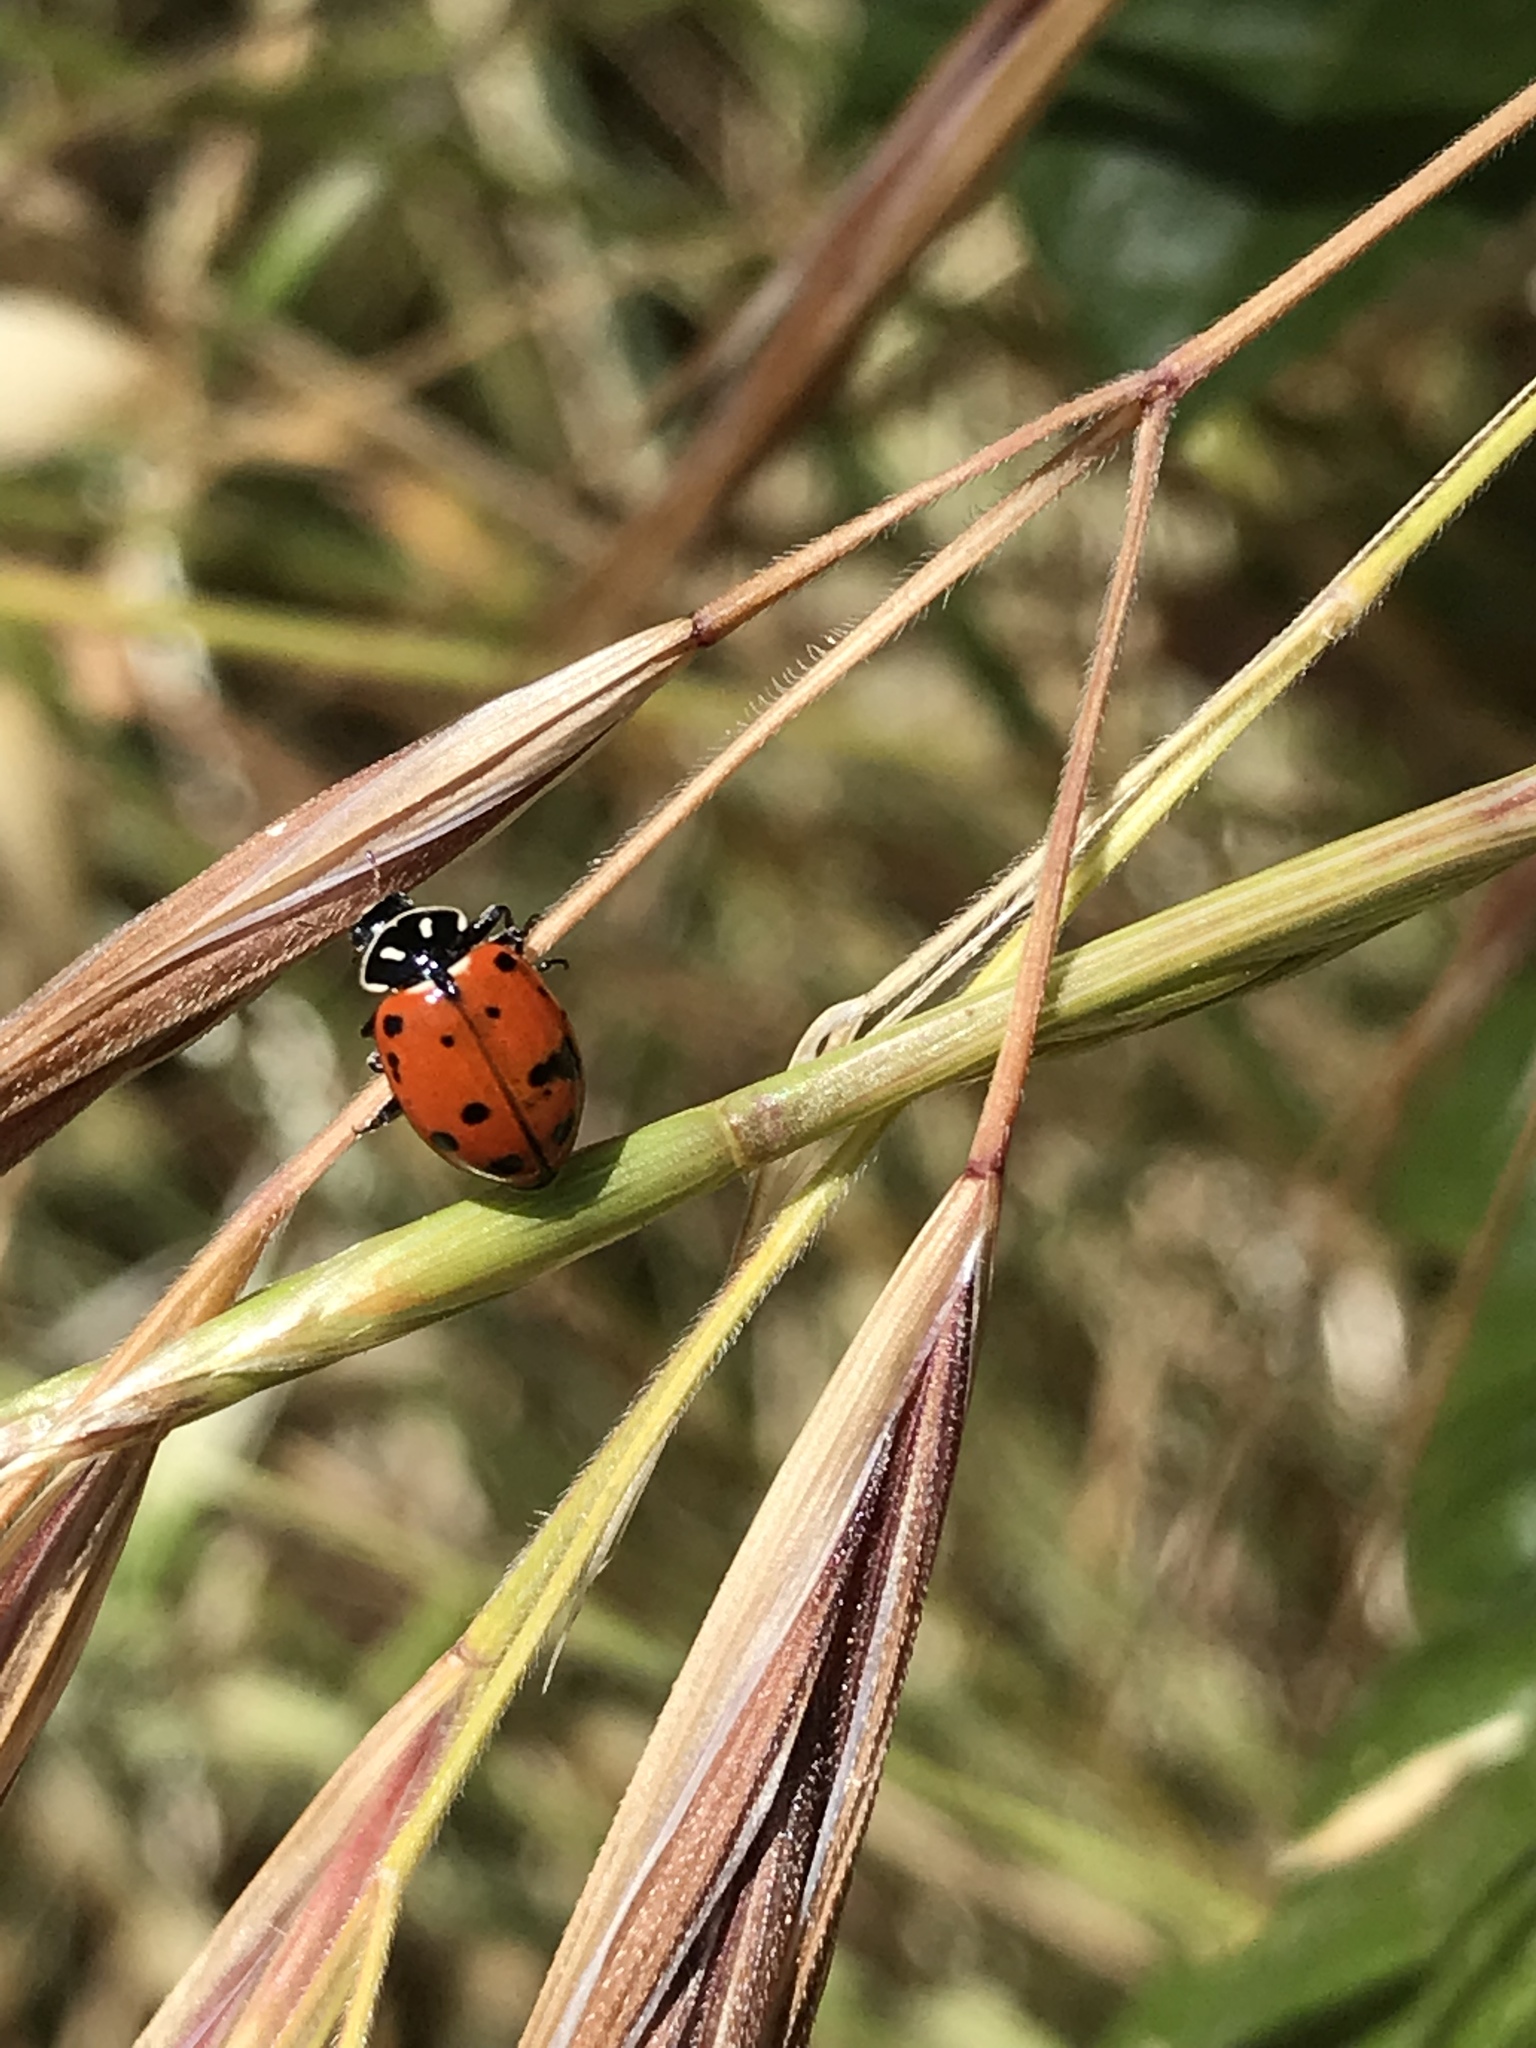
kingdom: Animalia
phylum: Arthropoda
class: Insecta
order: Coleoptera
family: Coccinellidae
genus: Hippodamia
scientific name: Hippodamia convergens
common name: Convergent lady beetle
